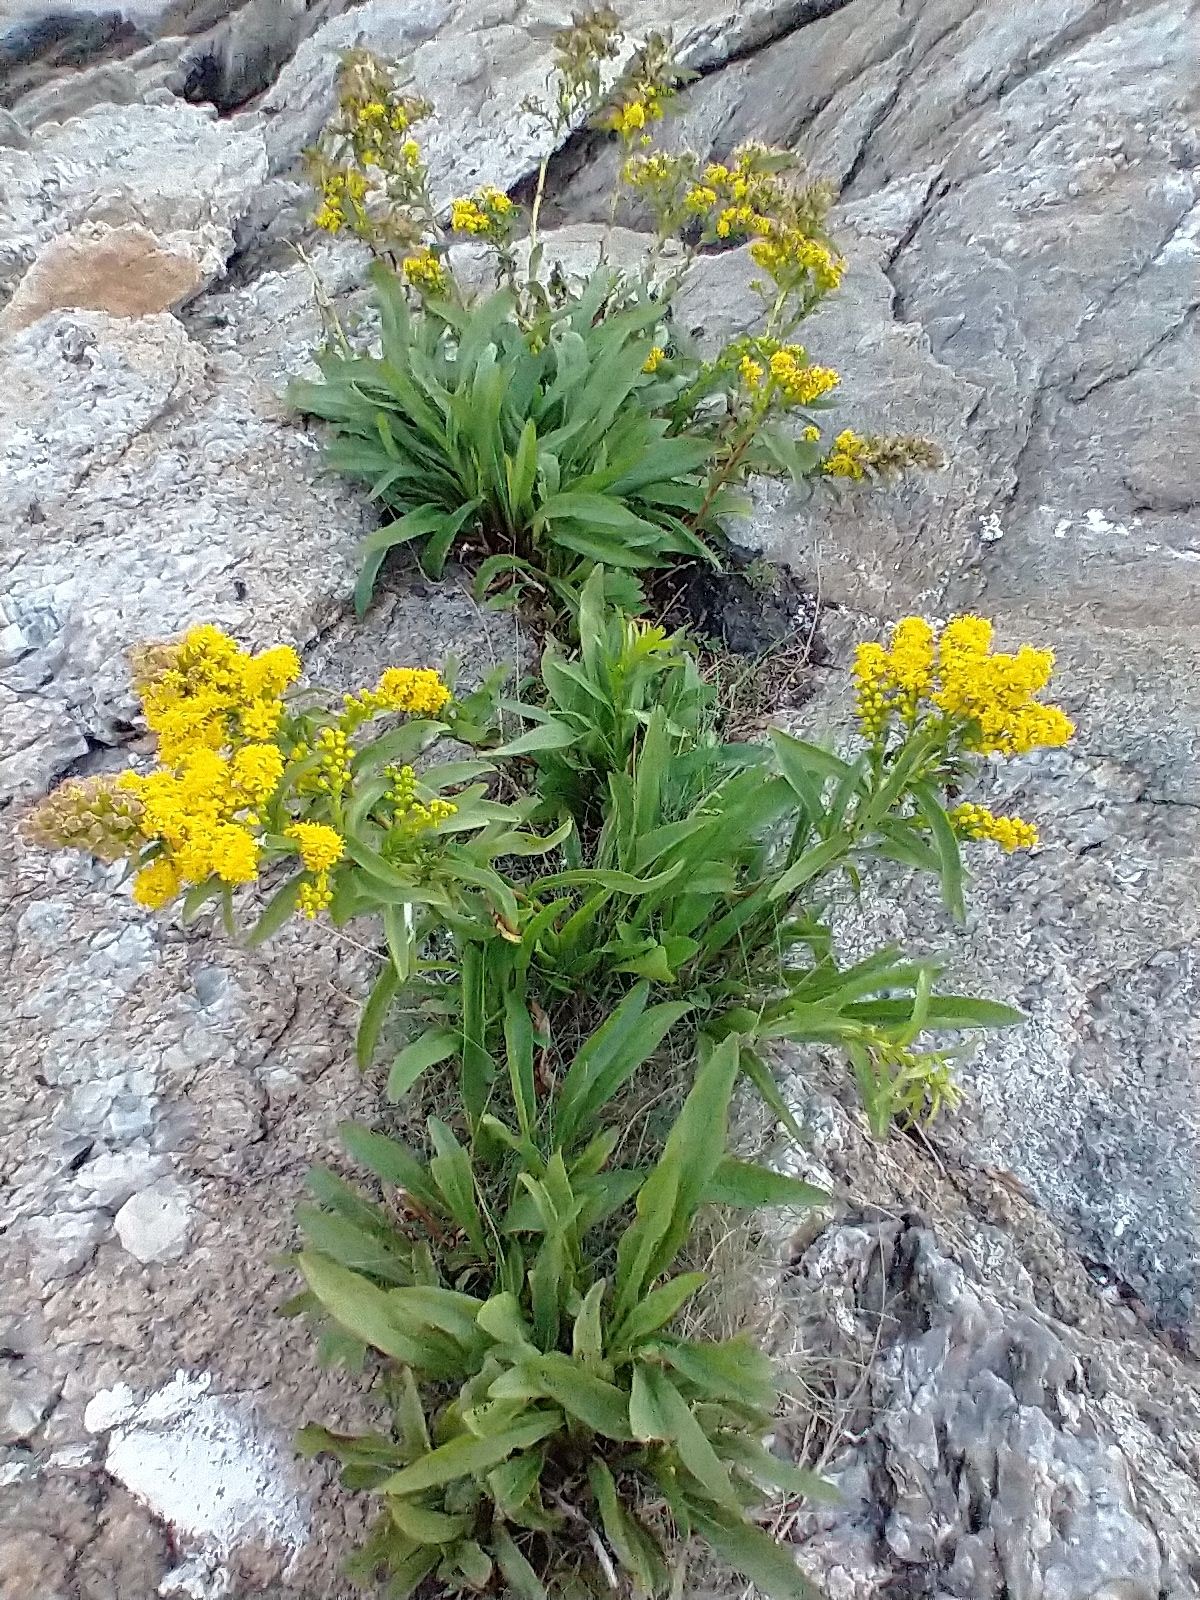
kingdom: Plantae
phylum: Tracheophyta
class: Magnoliopsida
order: Asterales
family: Asteraceae
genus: Solidago
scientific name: Solidago sempervirens
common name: Salt-marsh goldenrod
